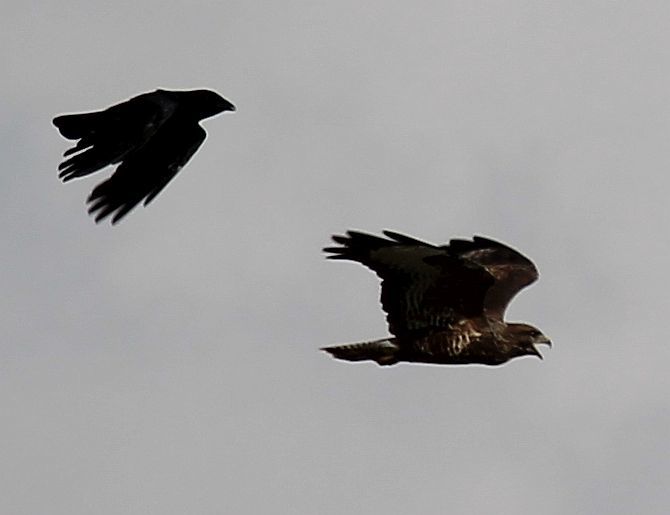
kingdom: Animalia
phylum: Chordata
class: Aves
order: Accipitriformes
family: Accipitridae
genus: Buteo
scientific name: Buteo buteo
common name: Common buzzard
